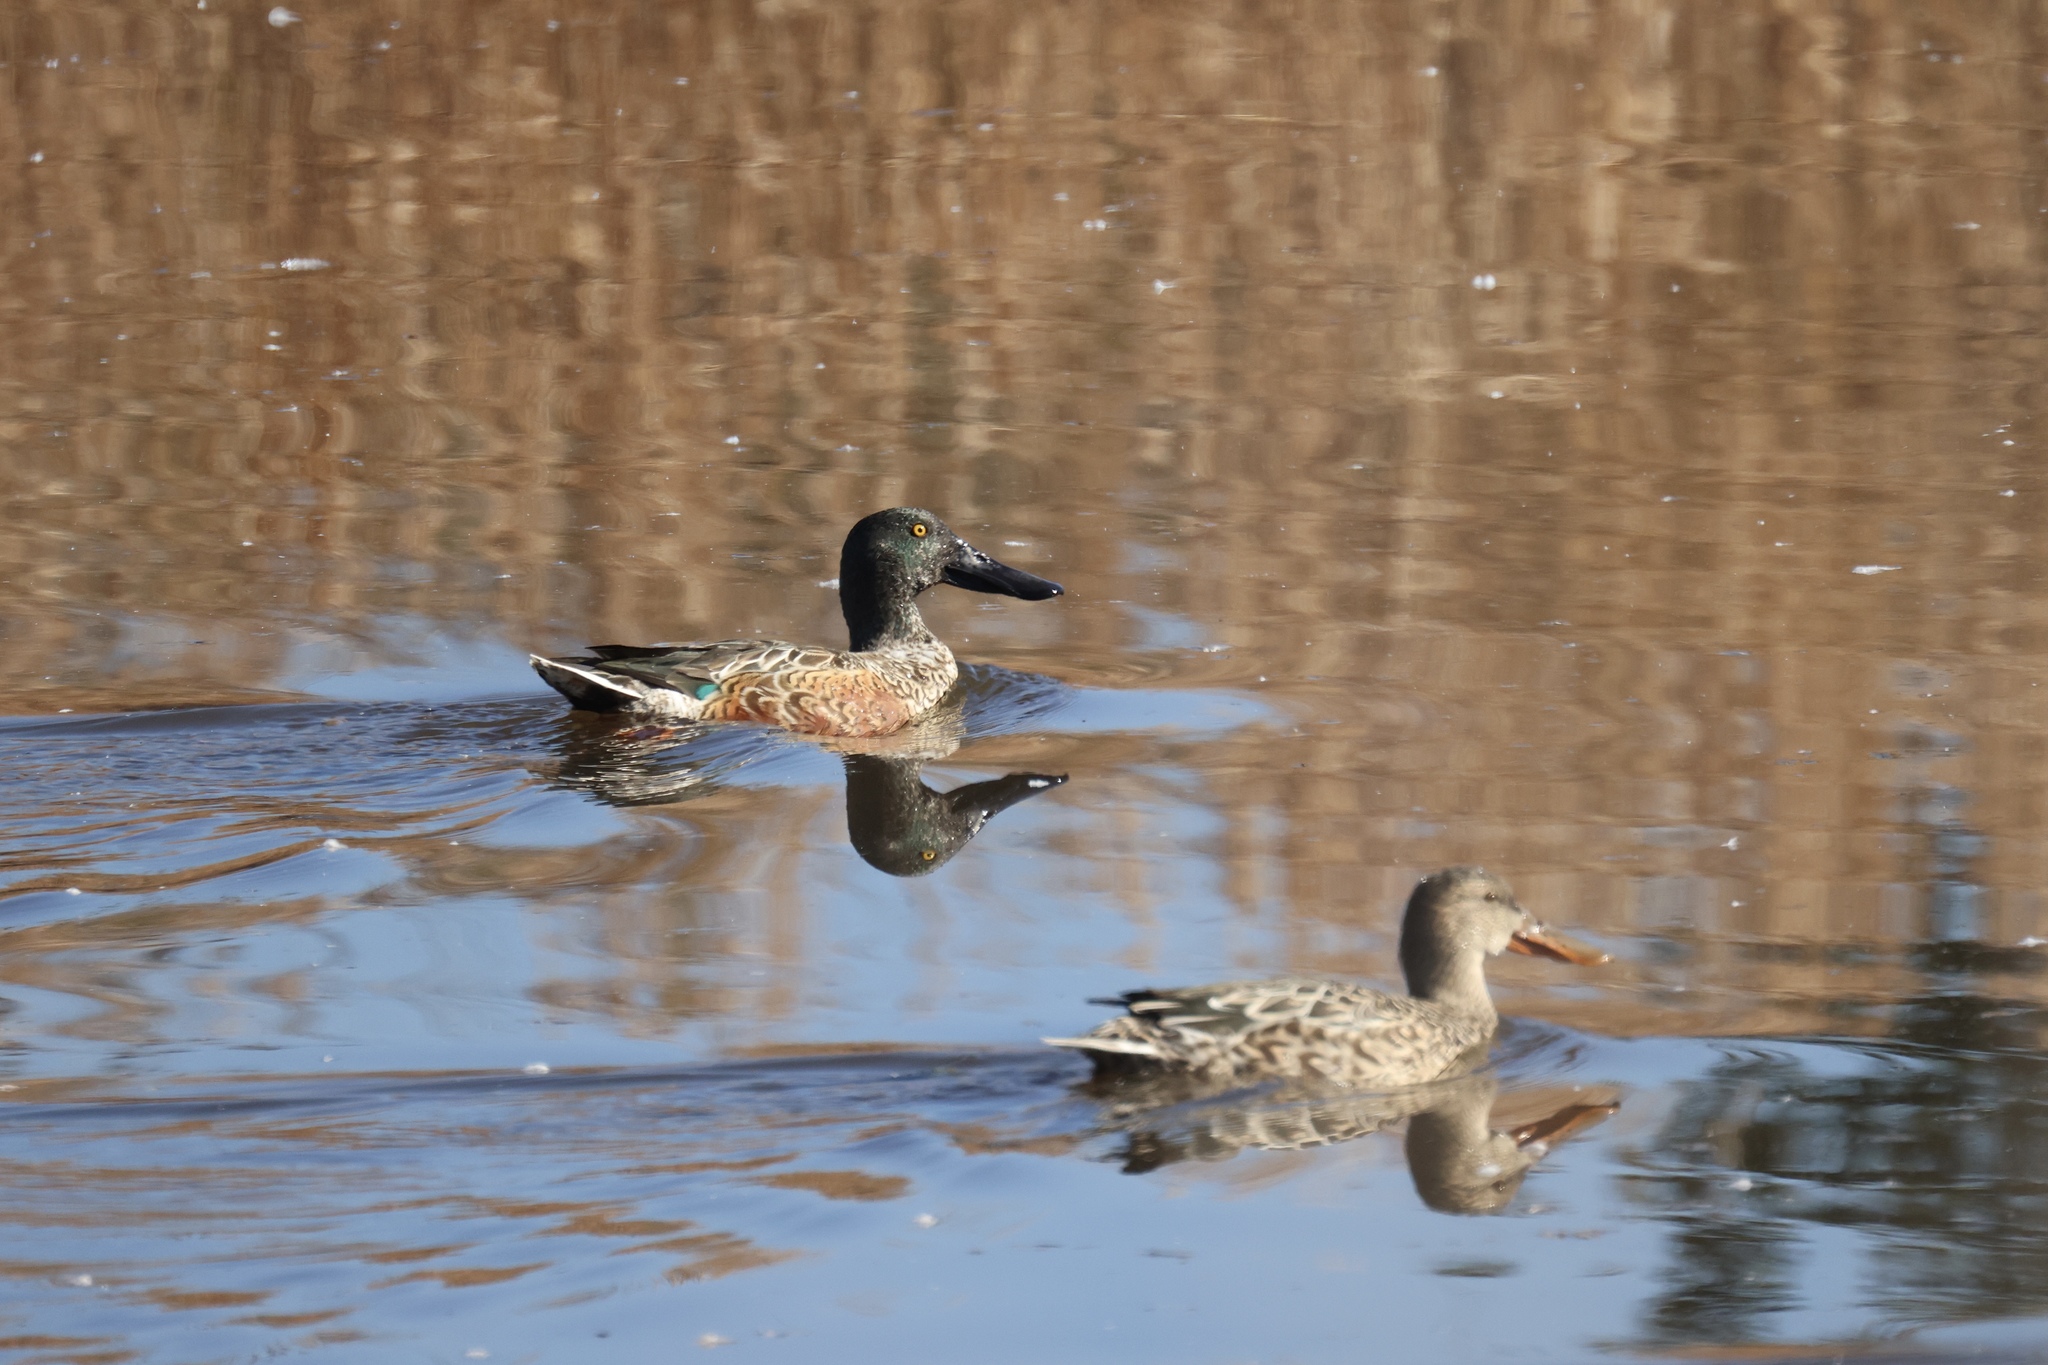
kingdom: Animalia
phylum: Chordata
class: Aves
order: Anseriformes
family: Anatidae
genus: Spatula
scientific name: Spatula clypeata
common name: Northern shoveler
